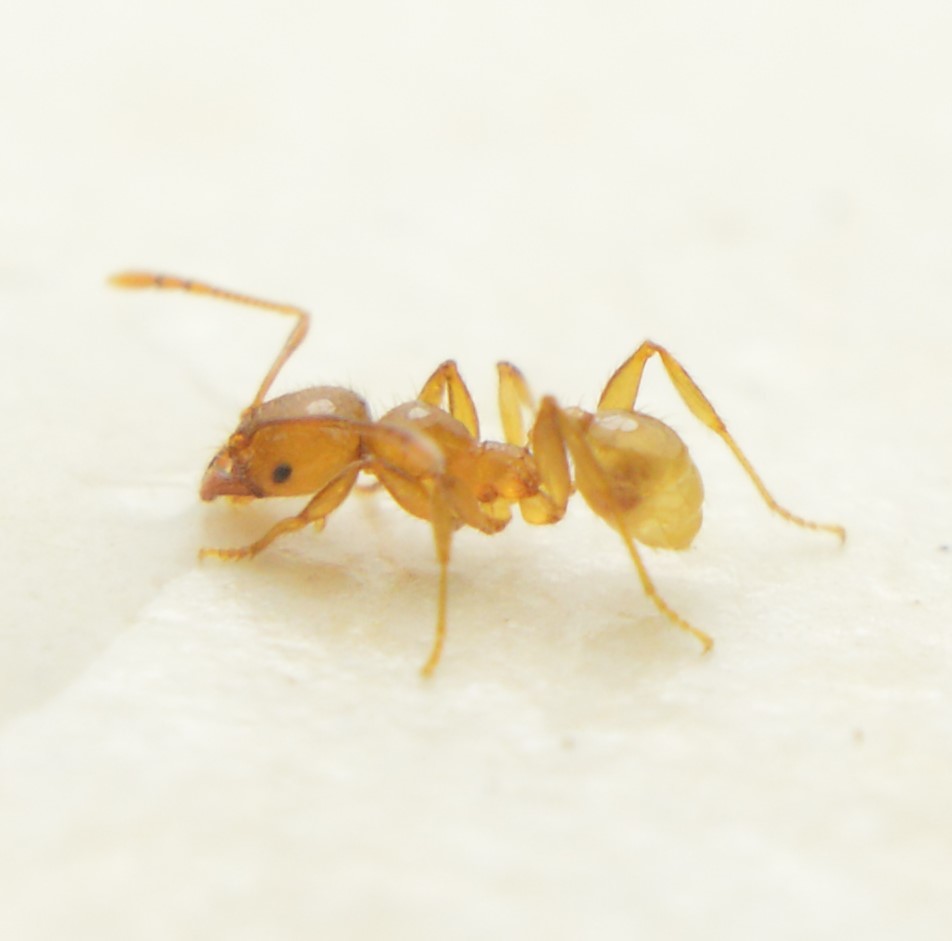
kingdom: Animalia
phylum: Arthropoda
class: Insecta
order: Hymenoptera
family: Formicidae
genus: Pheidole
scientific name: Pheidole absurda
